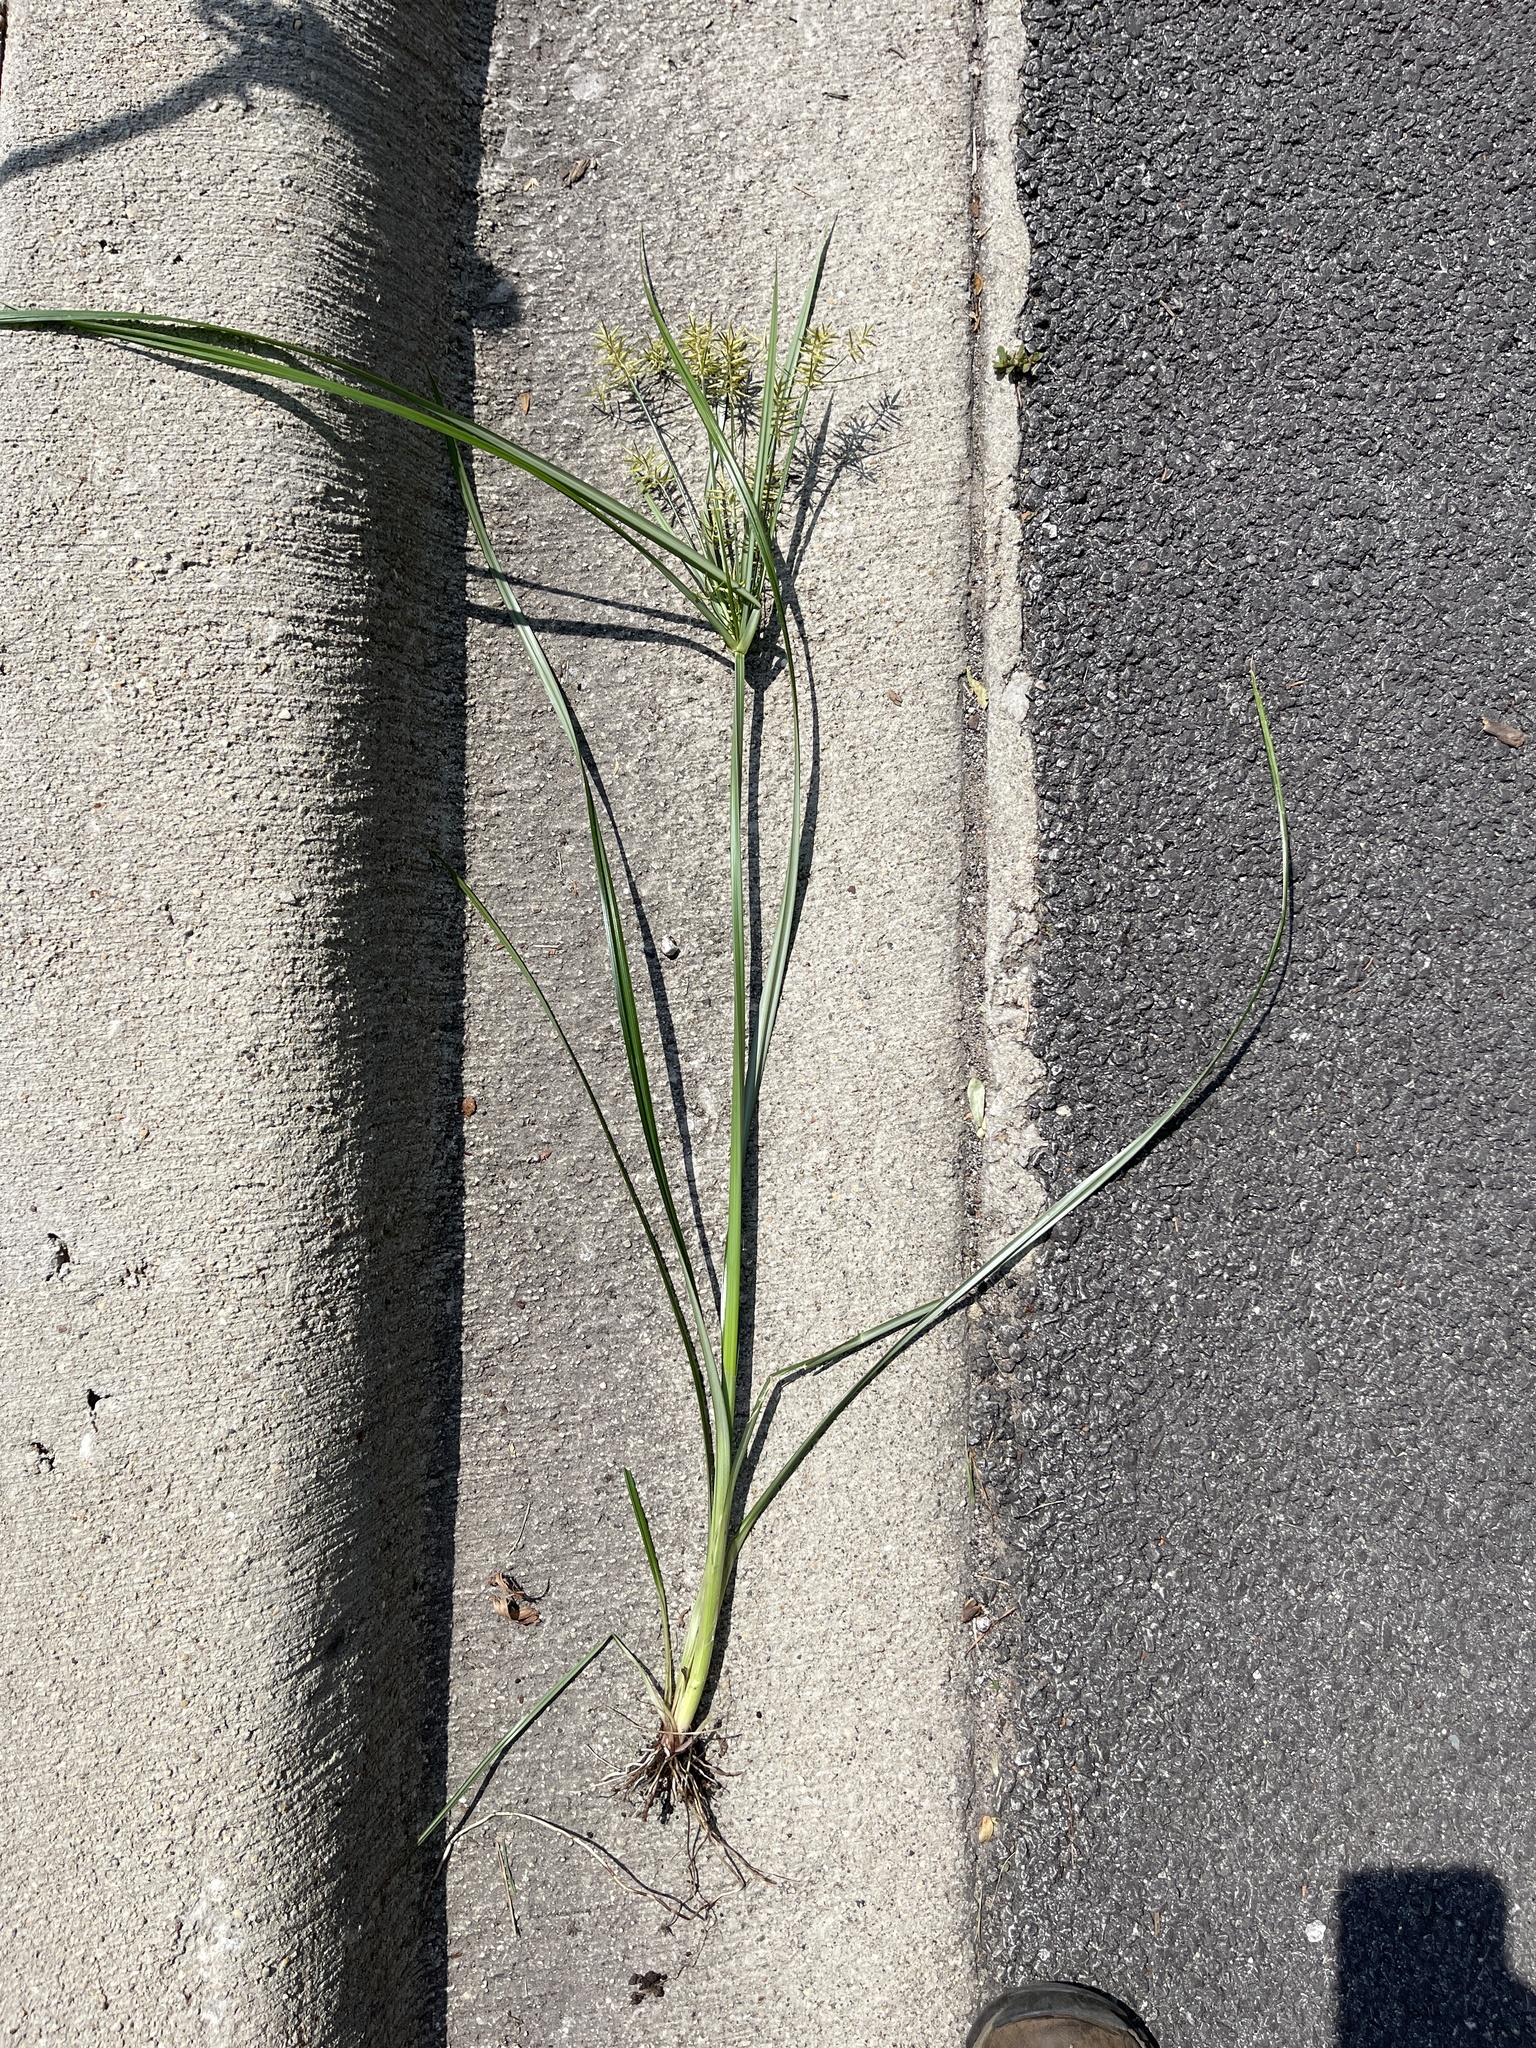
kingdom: Plantae
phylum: Tracheophyta
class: Liliopsida
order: Poales
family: Cyperaceae
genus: Cyperus
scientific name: Cyperus esculentus
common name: Yellow nutsedge
